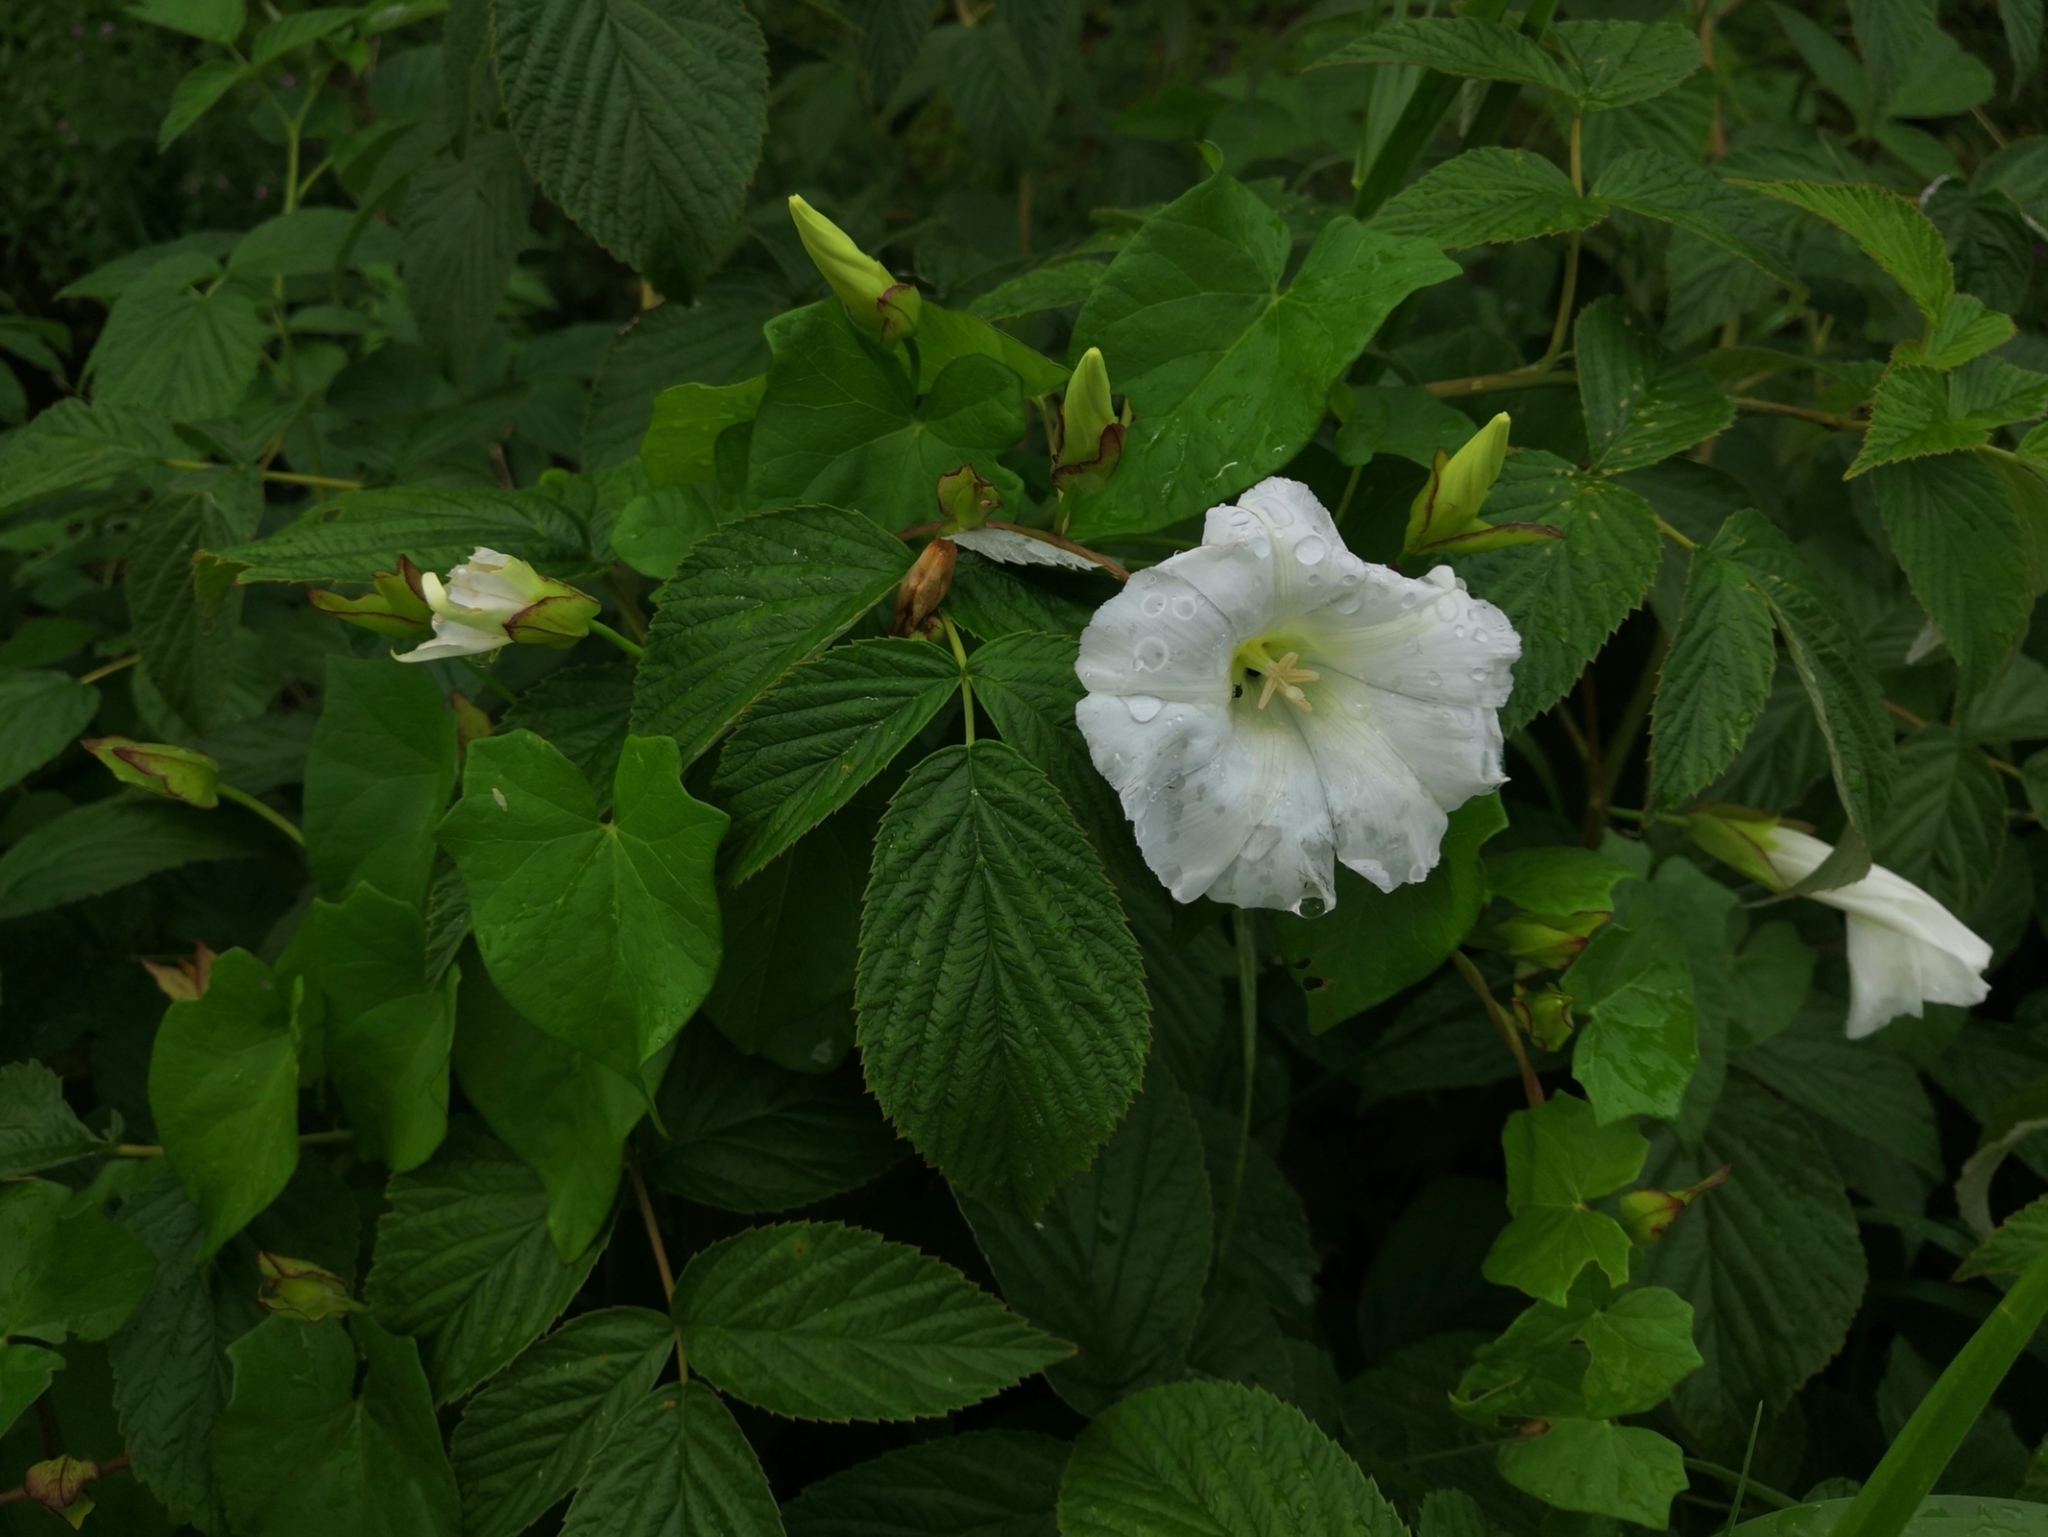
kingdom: Plantae
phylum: Tracheophyta
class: Magnoliopsida
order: Solanales
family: Convolvulaceae
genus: Calystegia
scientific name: Calystegia sepium
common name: Hedge bindweed
